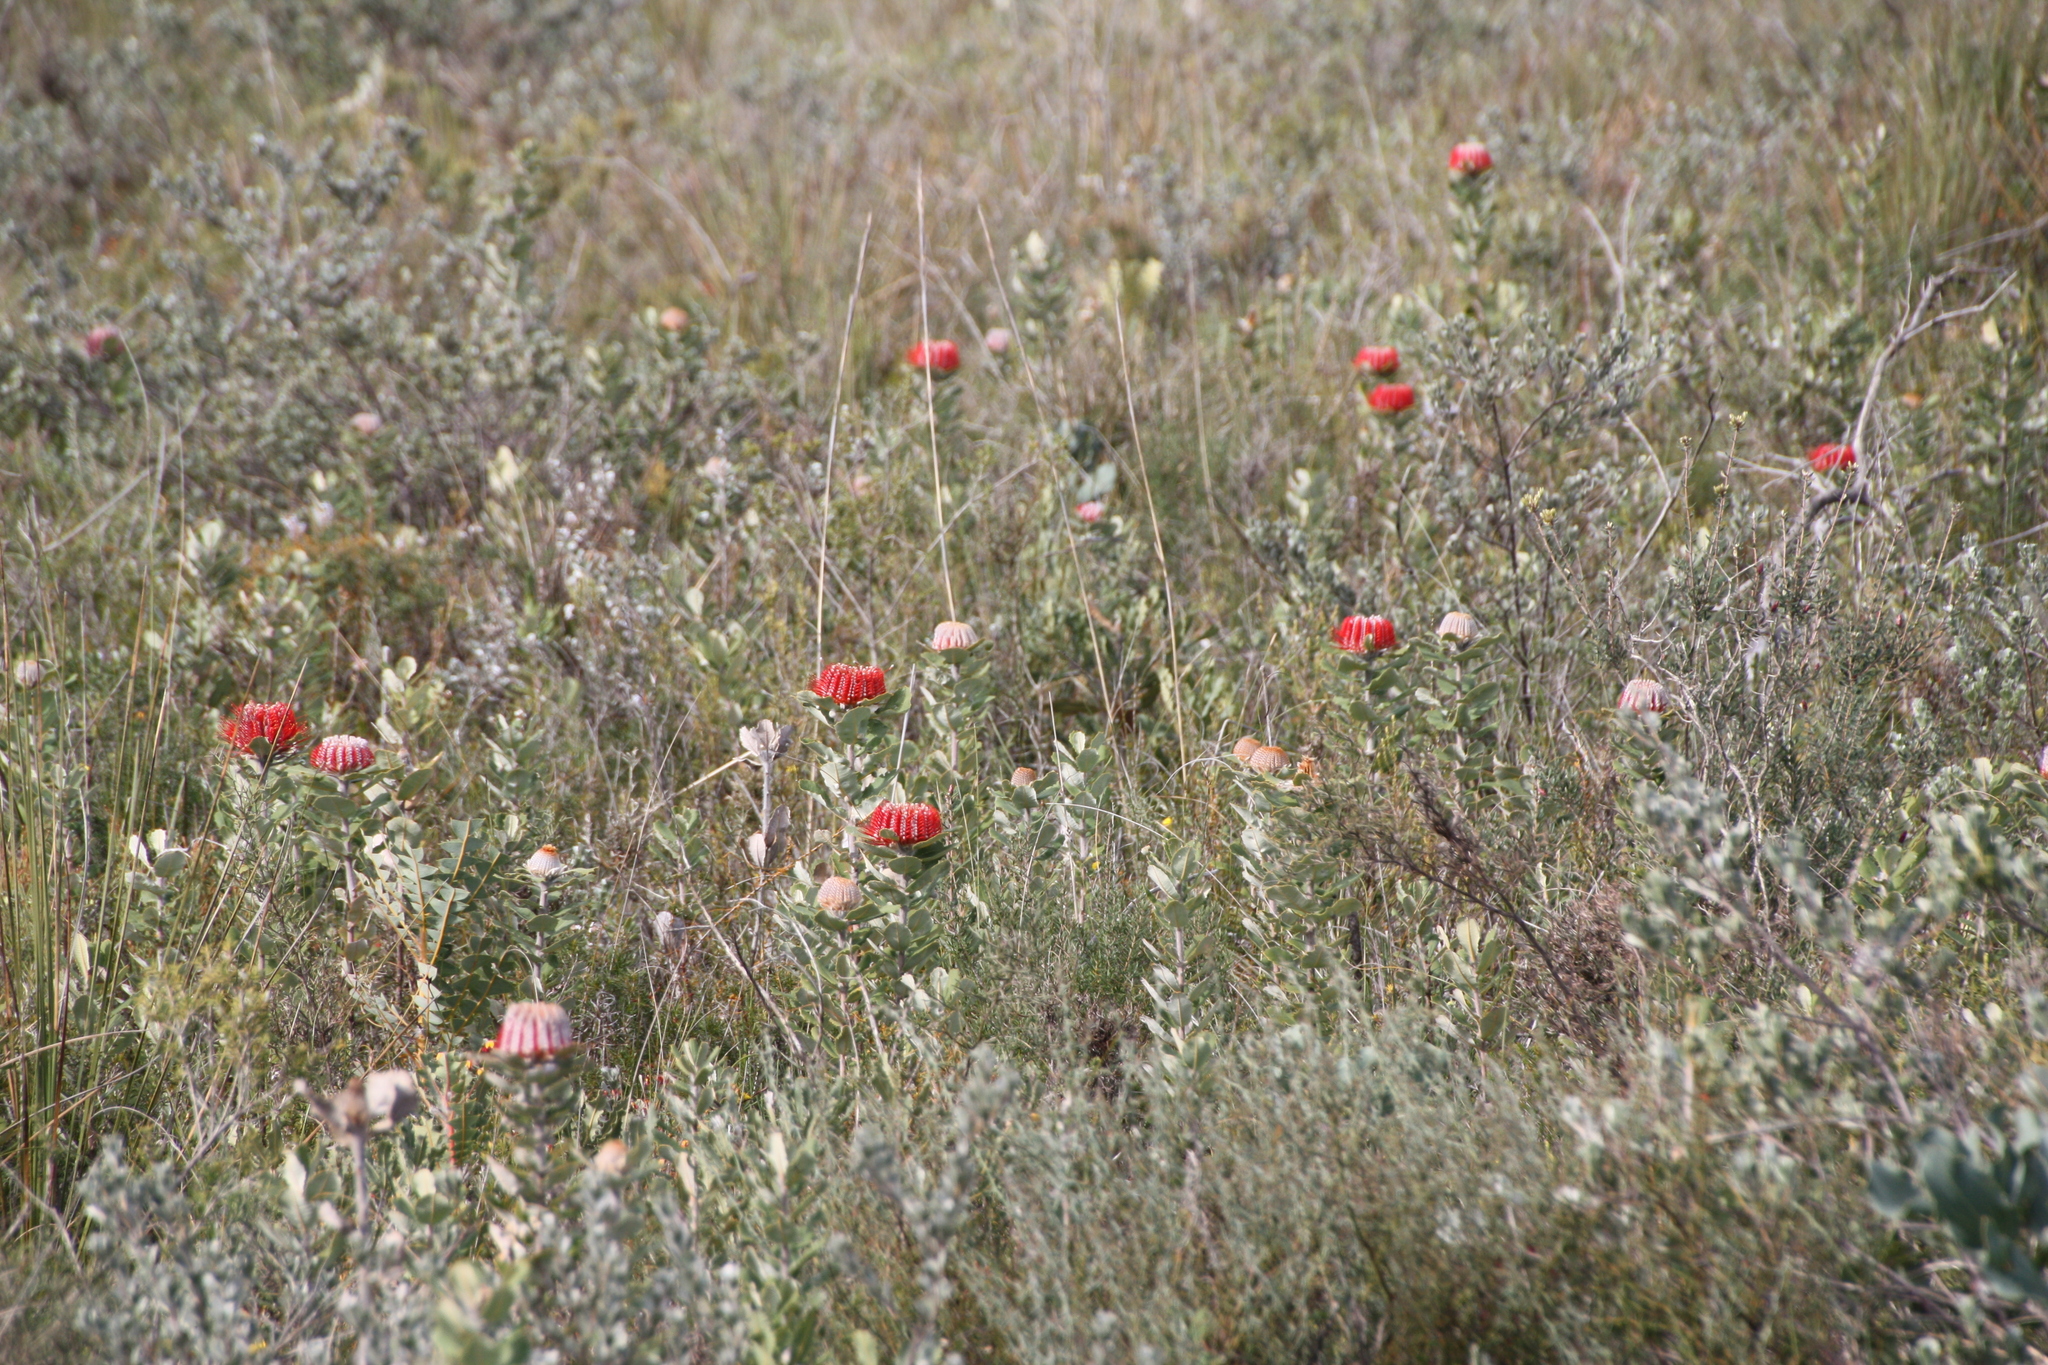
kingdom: Plantae
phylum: Tracheophyta
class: Magnoliopsida
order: Proteales
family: Proteaceae
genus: Banksia
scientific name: Banksia coccinea
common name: Scarlet banksia
